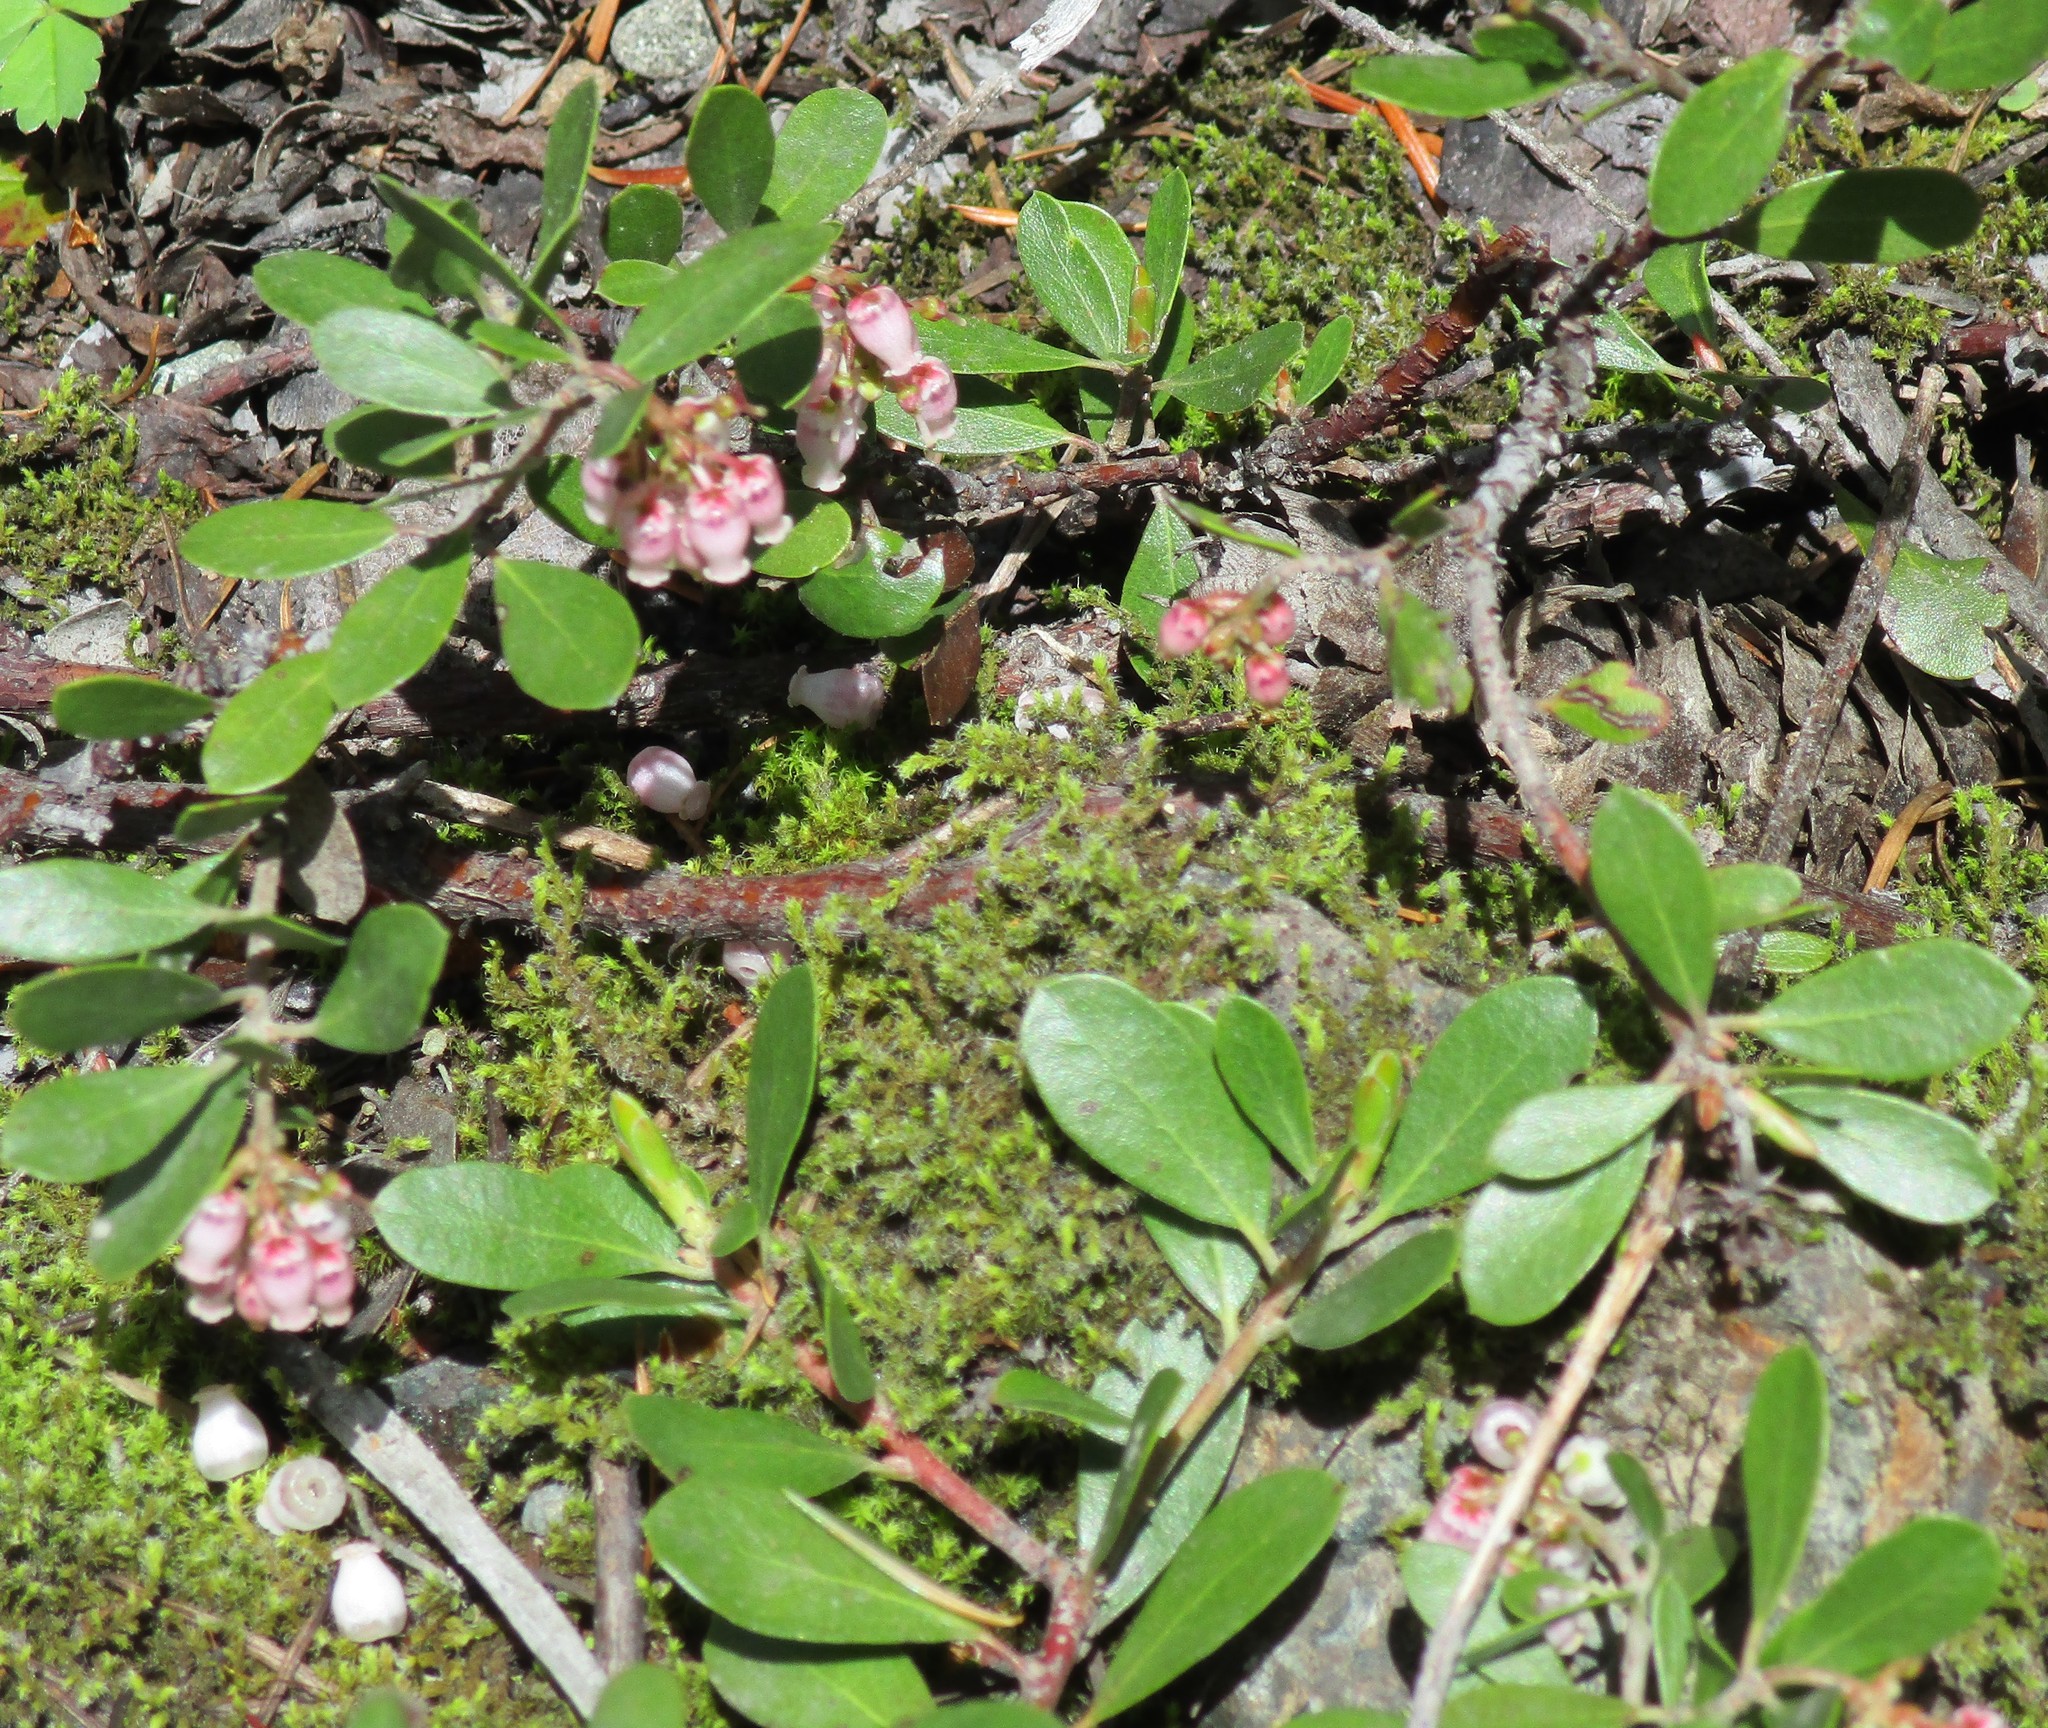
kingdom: Plantae
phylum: Tracheophyta
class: Magnoliopsida
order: Ericales
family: Ericaceae
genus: Arctostaphylos
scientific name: Arctostaphylos uva-ursi
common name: Bearberry
